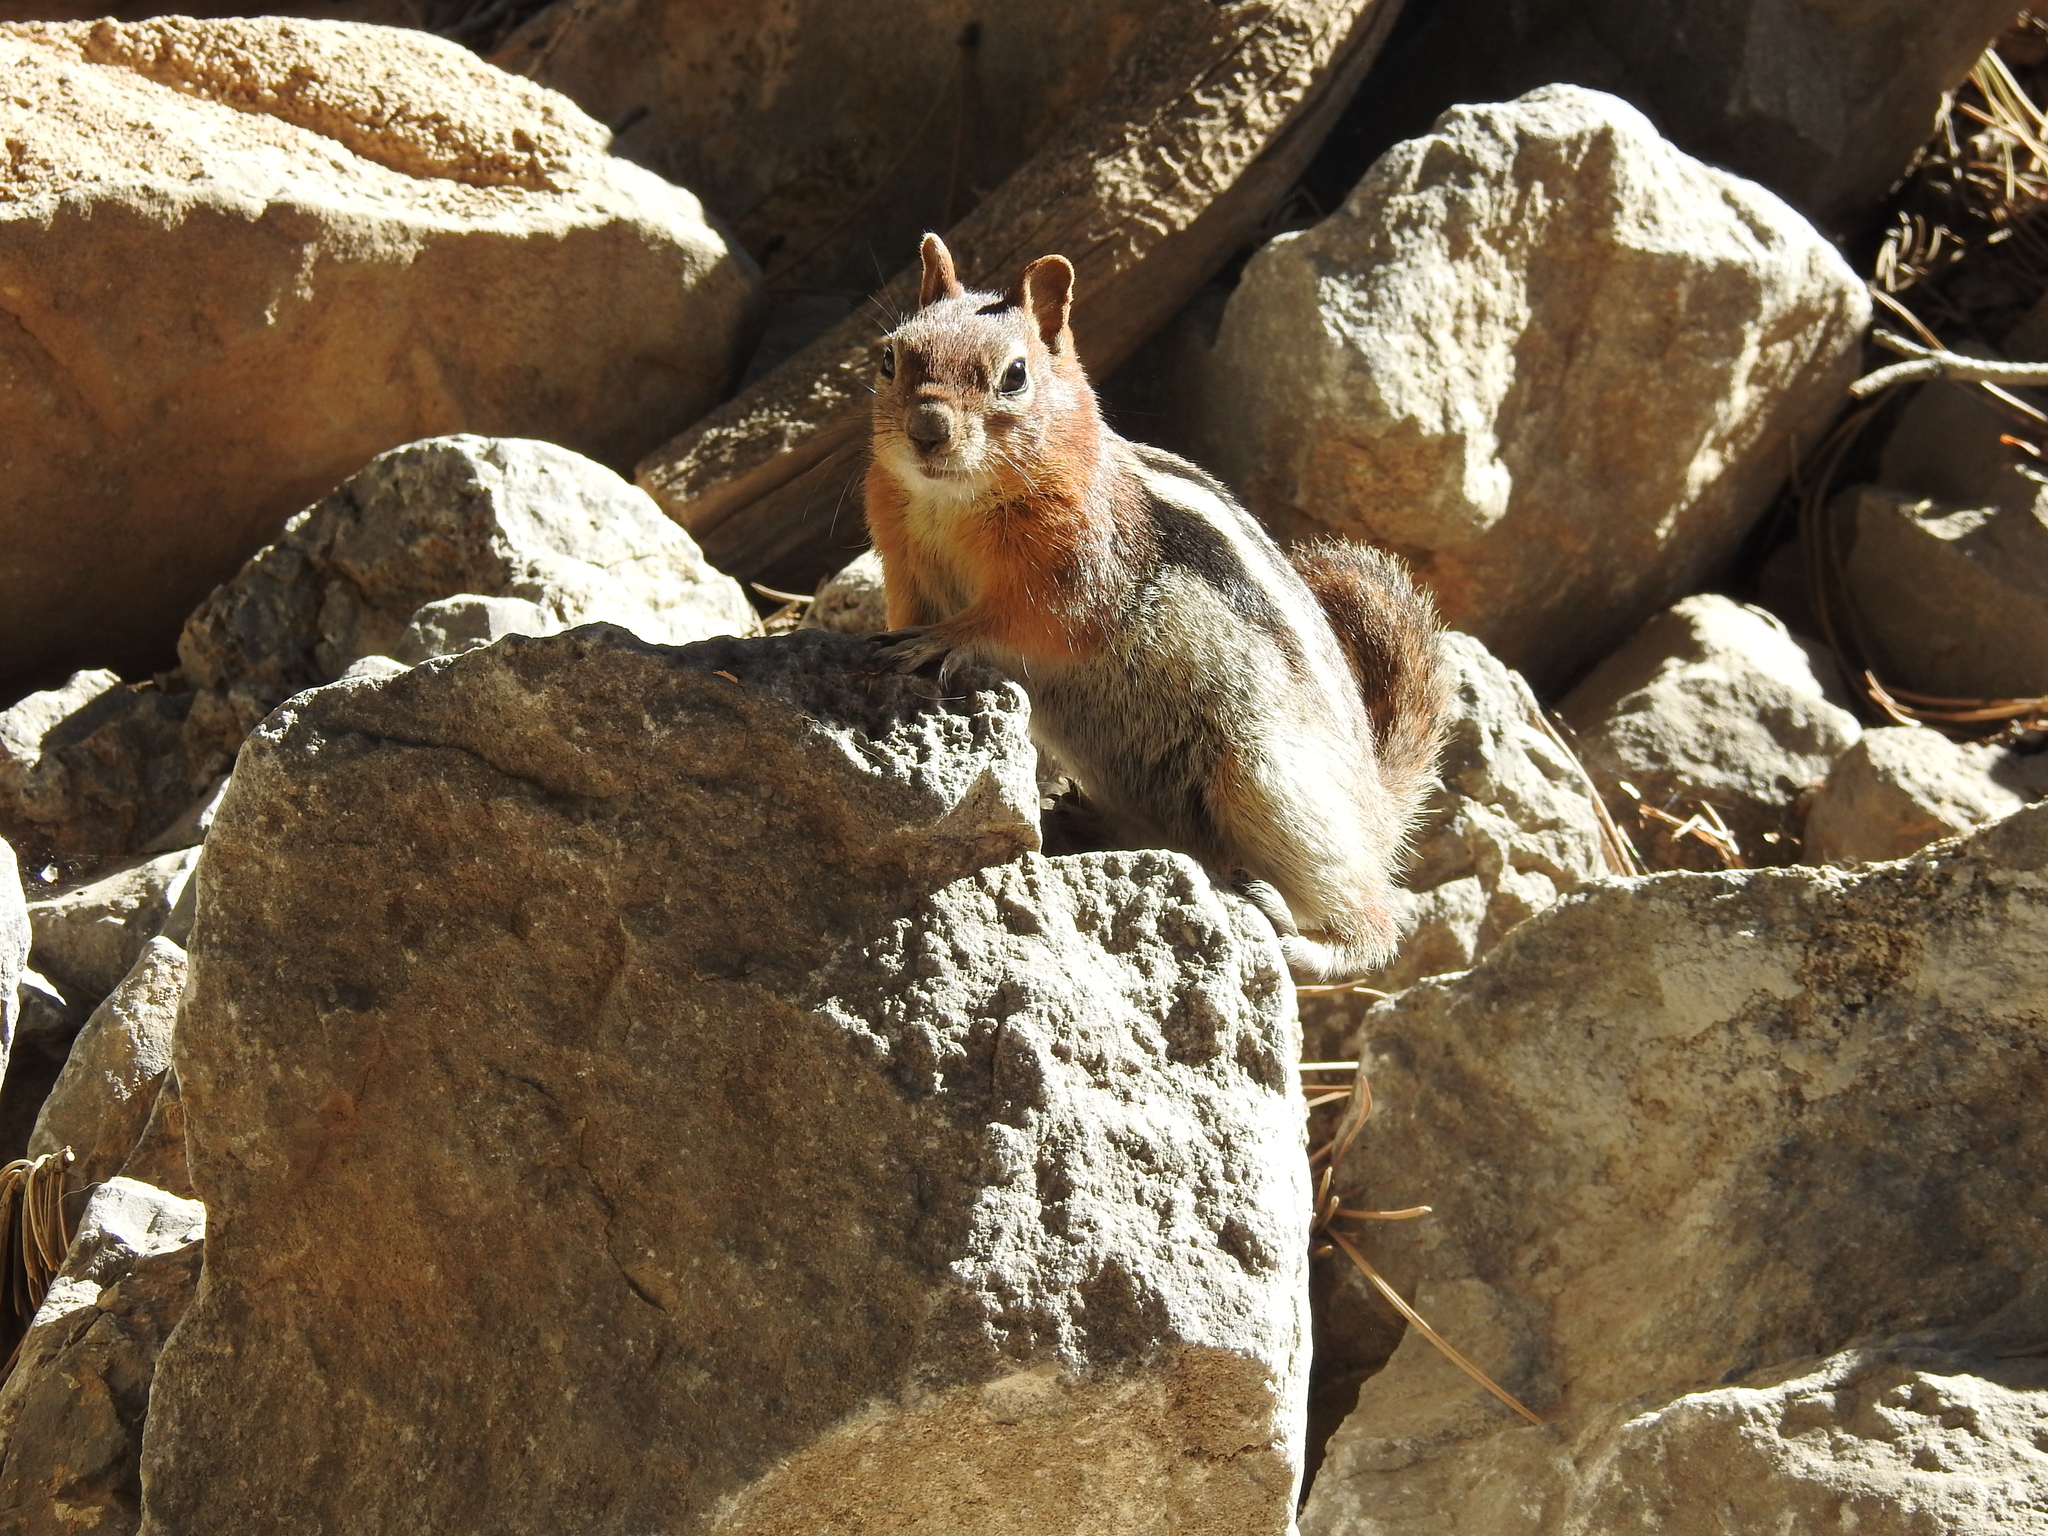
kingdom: Animalia
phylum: Chordata
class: Mammalia
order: Rodentia
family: Sciuridae
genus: Callospermophilus
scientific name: Callospermophilus lateralis
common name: Golden-mantled ground squirrel
